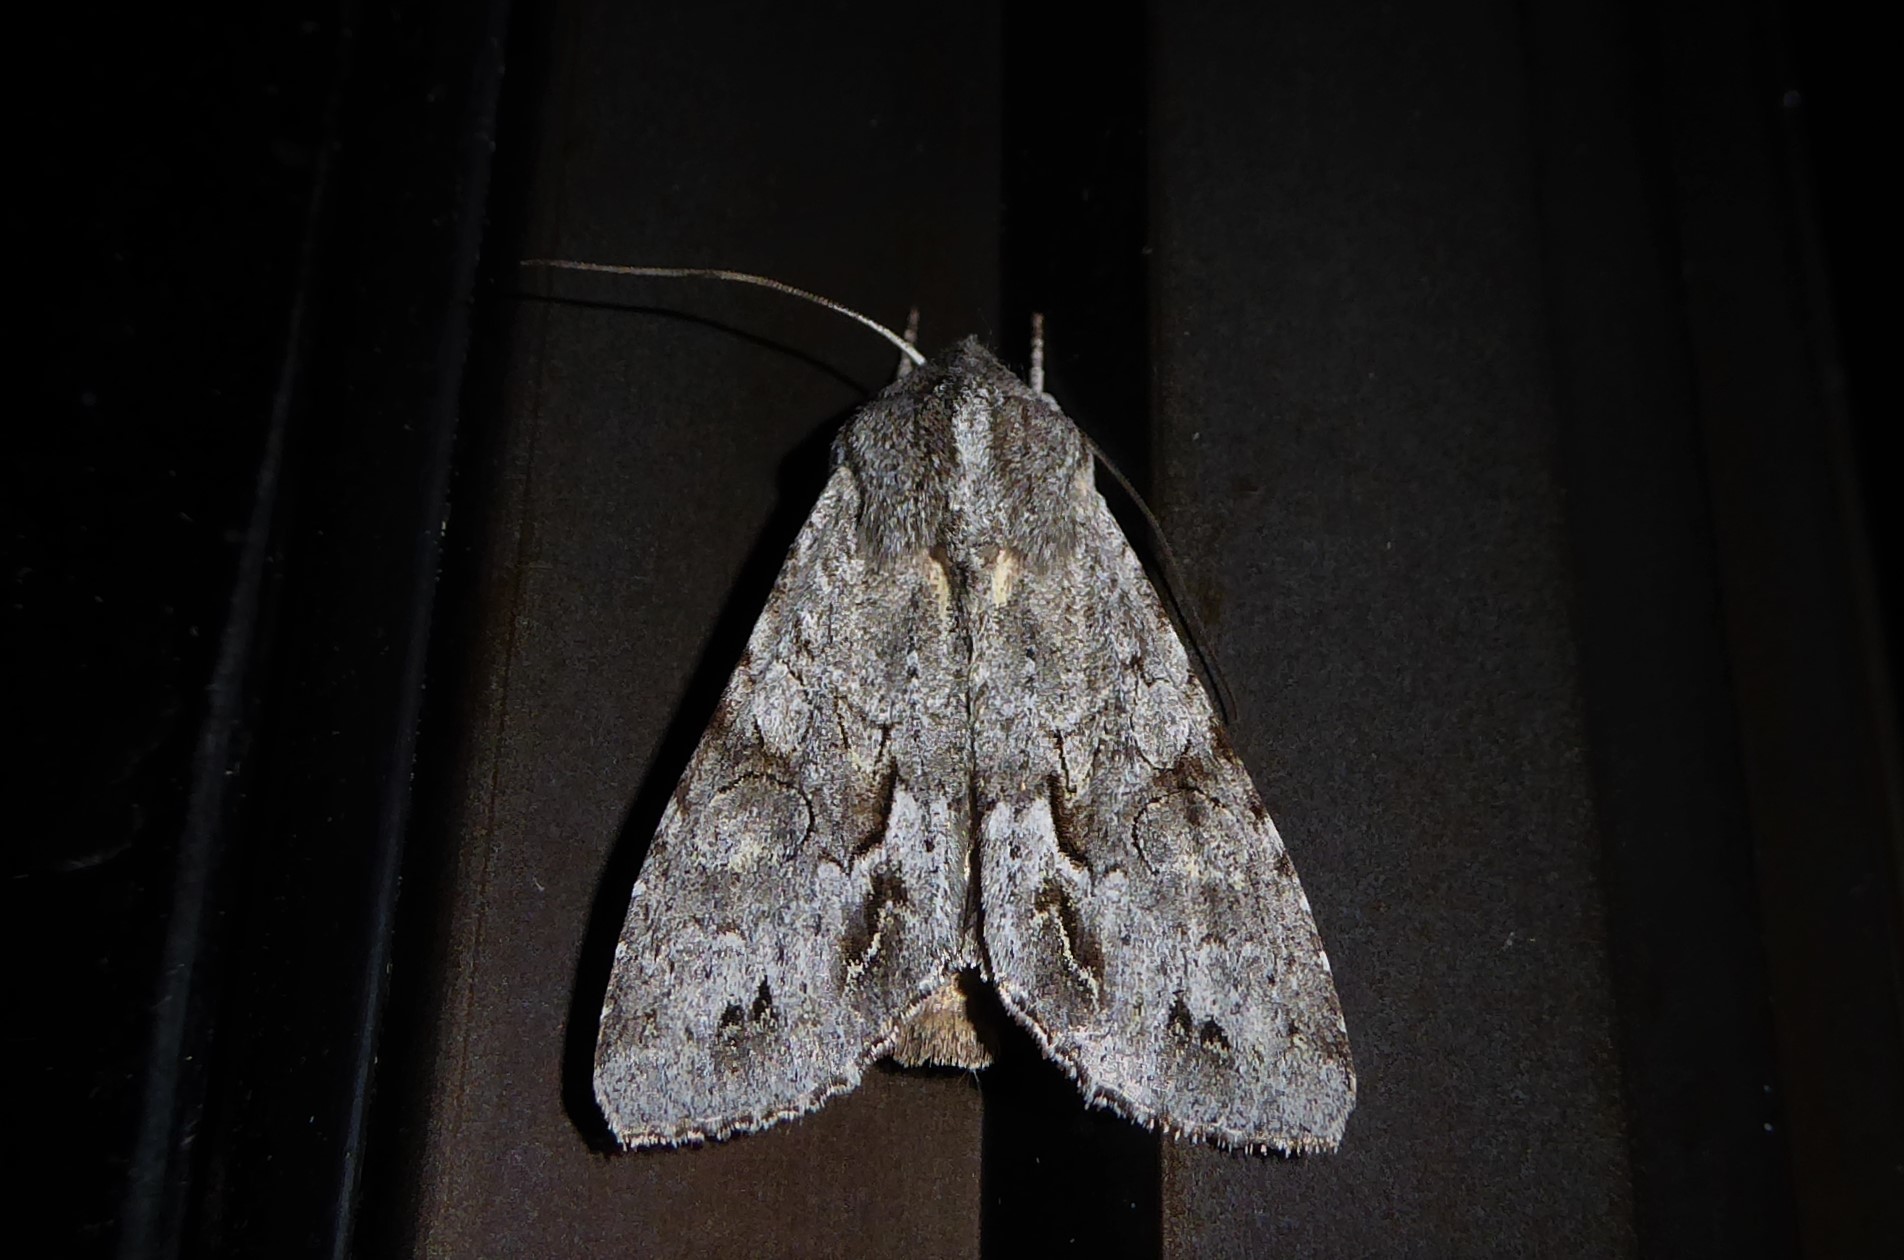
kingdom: Animalia
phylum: Arthropoda
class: Insecta
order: Lepidoptera
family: Noctuidae
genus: Ichneutica
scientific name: Ichneutica
